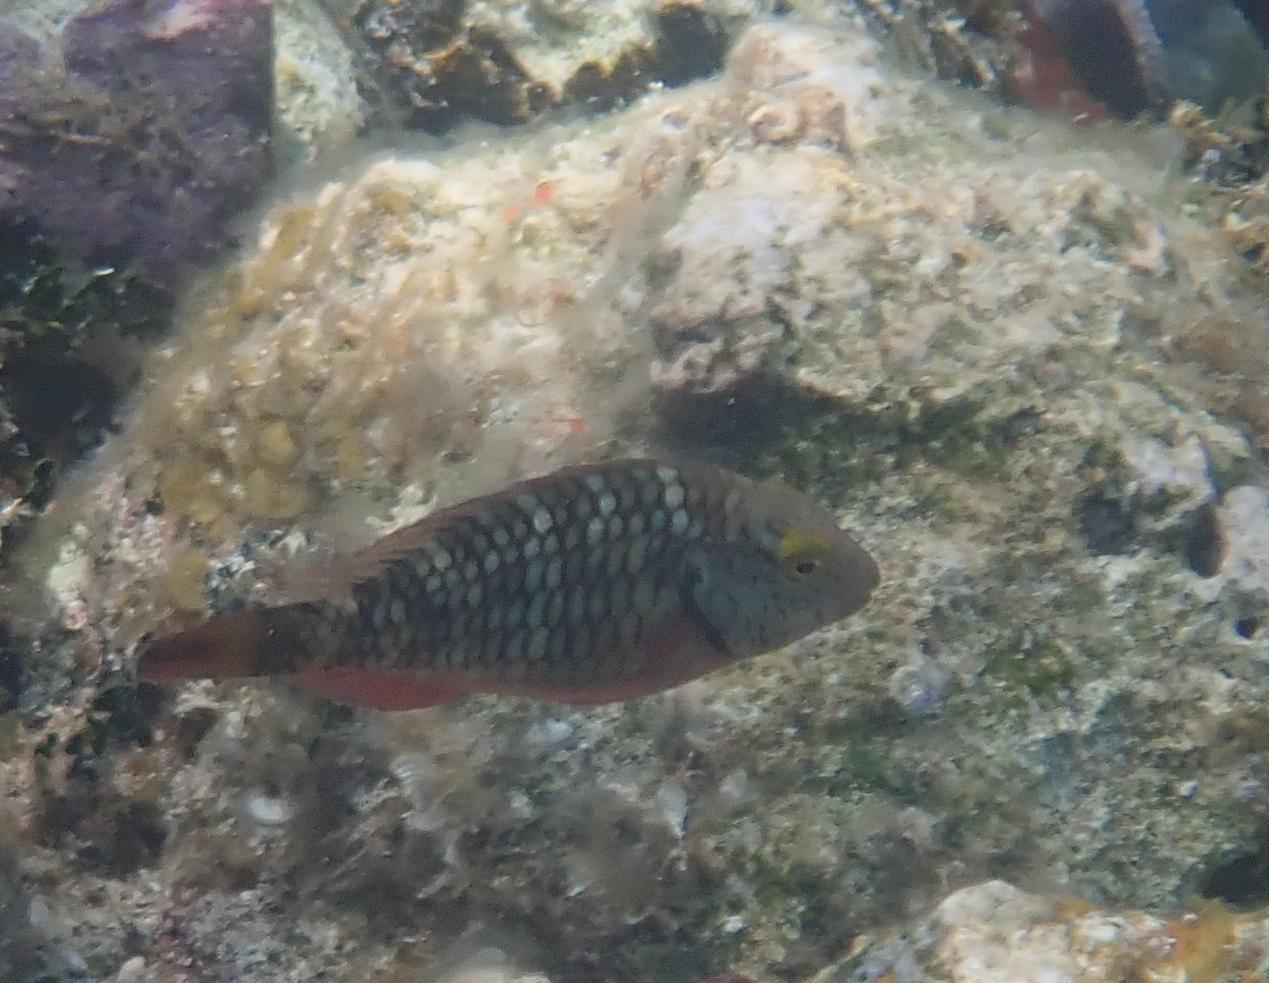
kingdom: Animalia
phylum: Chordata
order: Perciformes
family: Scaridae
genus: Sparisoma
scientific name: Sparisoma viride
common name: Stoplight parrotfish
